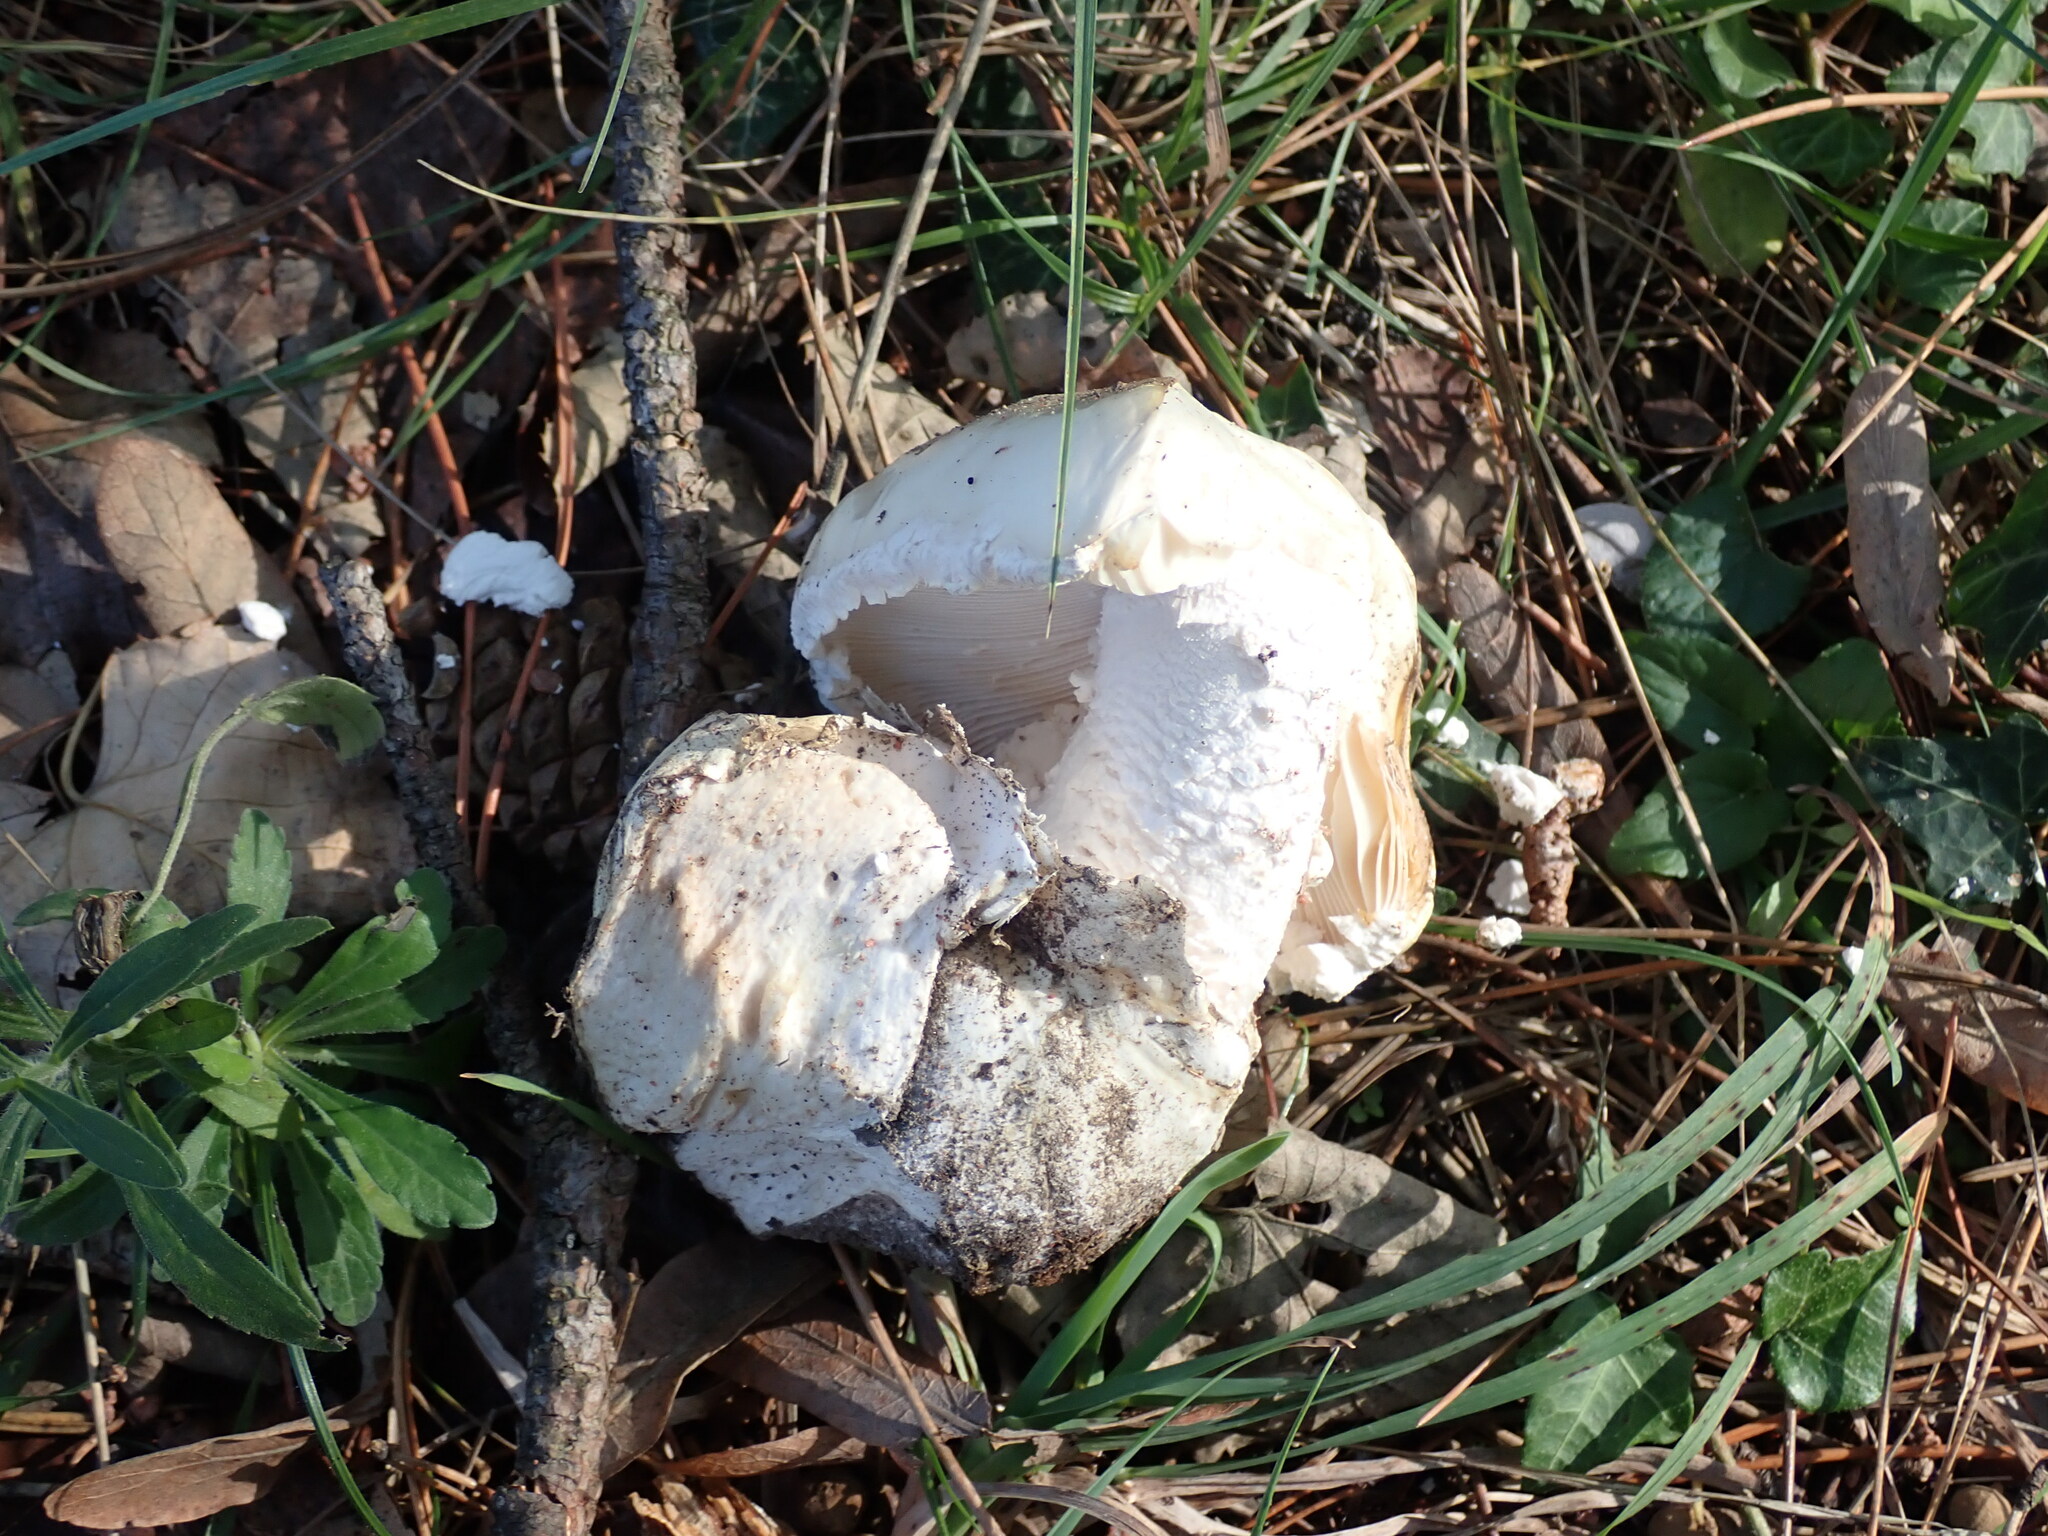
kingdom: Fungi
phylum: Basidiomycota
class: Agaricomycetes
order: Agaricales
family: Amanitaceae
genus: Amanita
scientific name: Amanita ovoidea
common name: Bearded amanita
